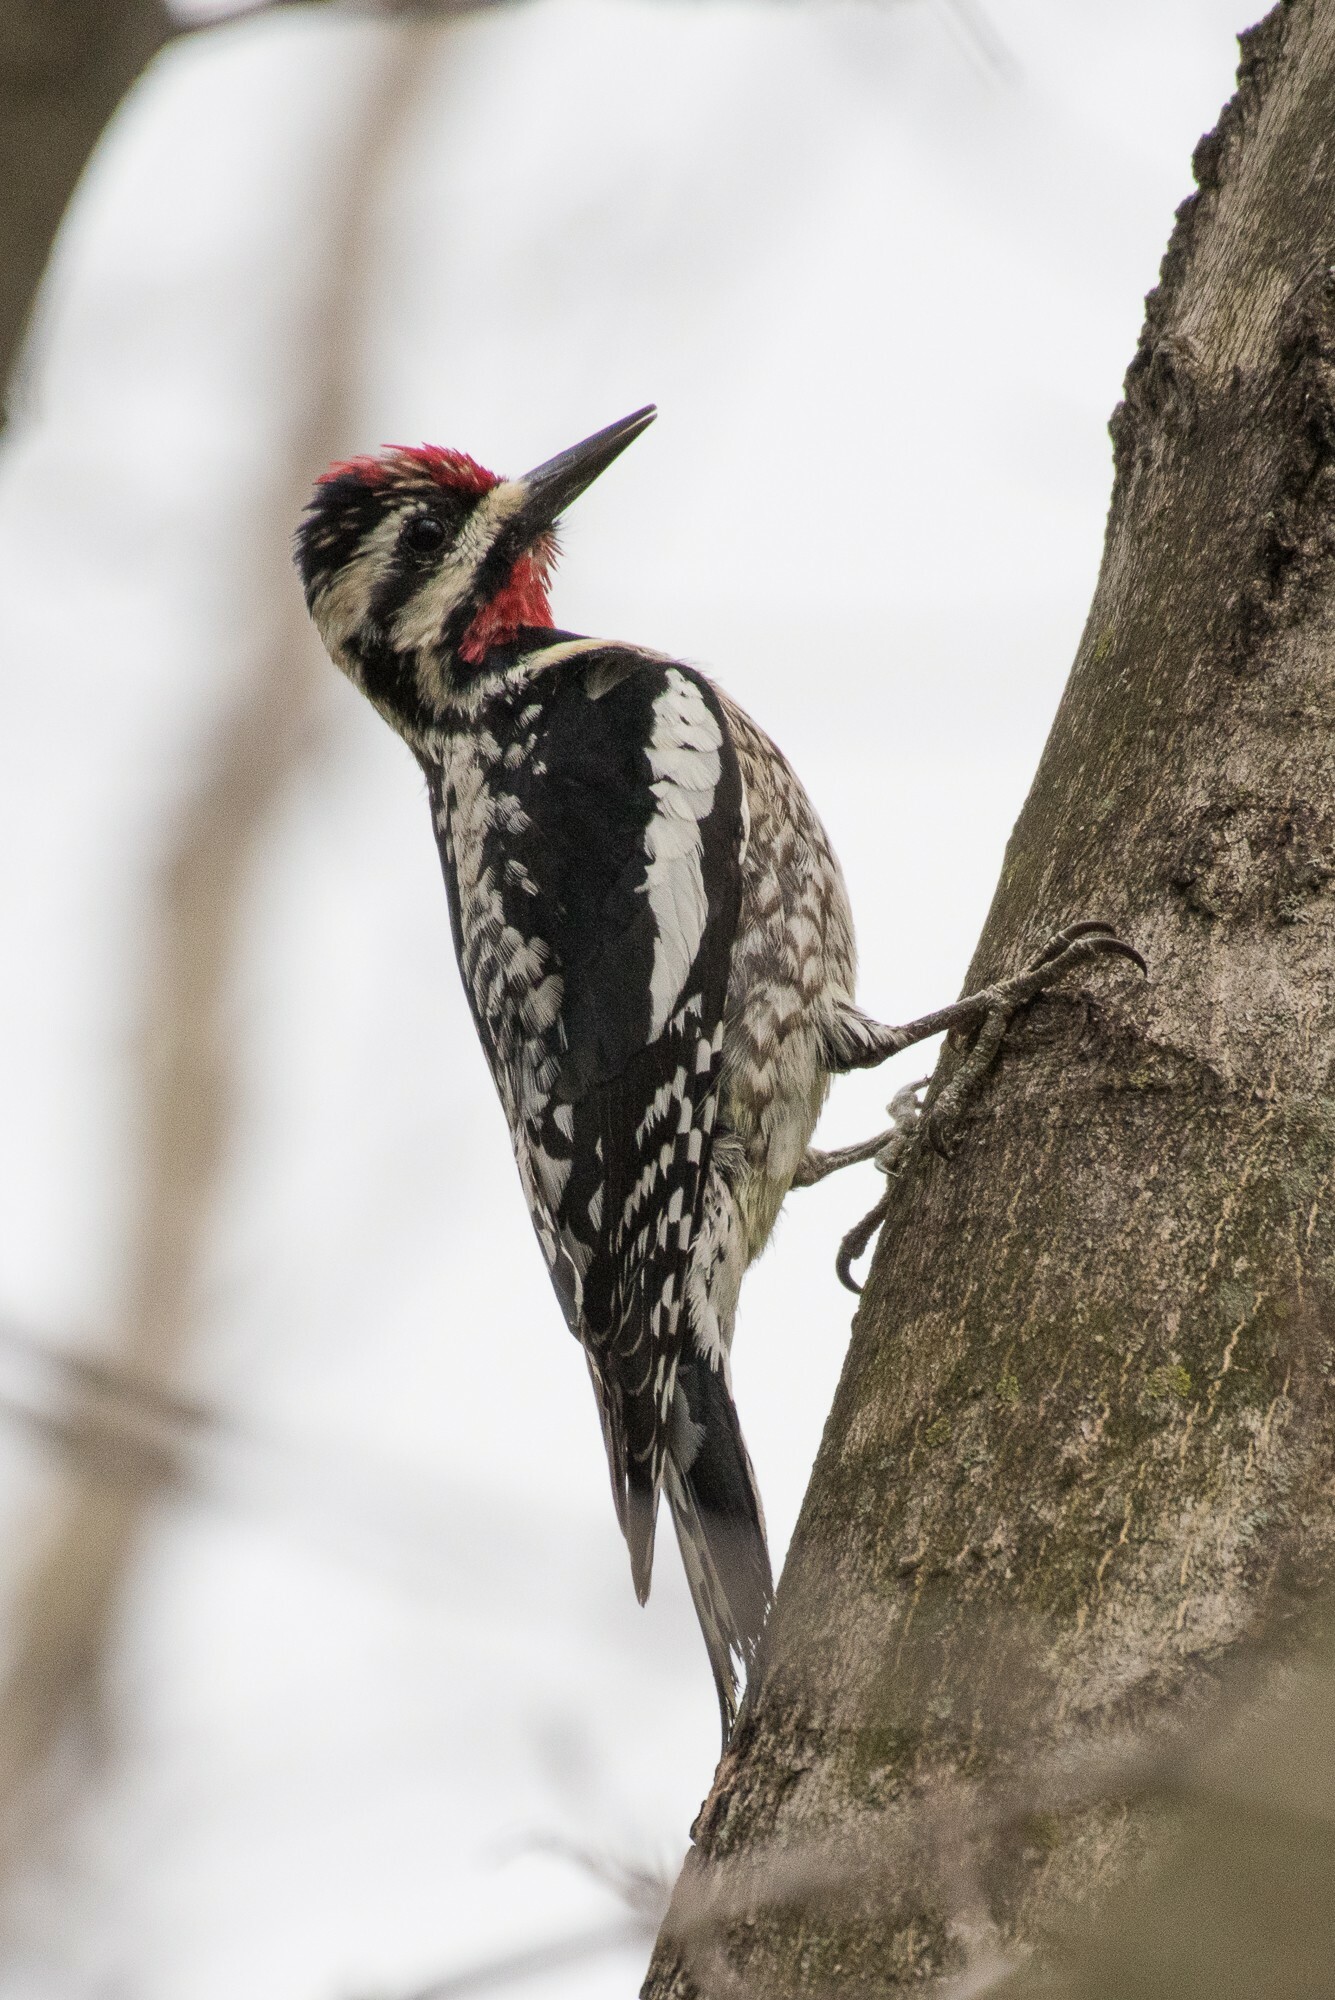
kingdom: Animalia
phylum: Chordata
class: Aves
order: Piciformes
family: Picidae
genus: Sphyrapicus
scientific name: Sphyrapicus varius
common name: Yellow-bellied sapsucker
